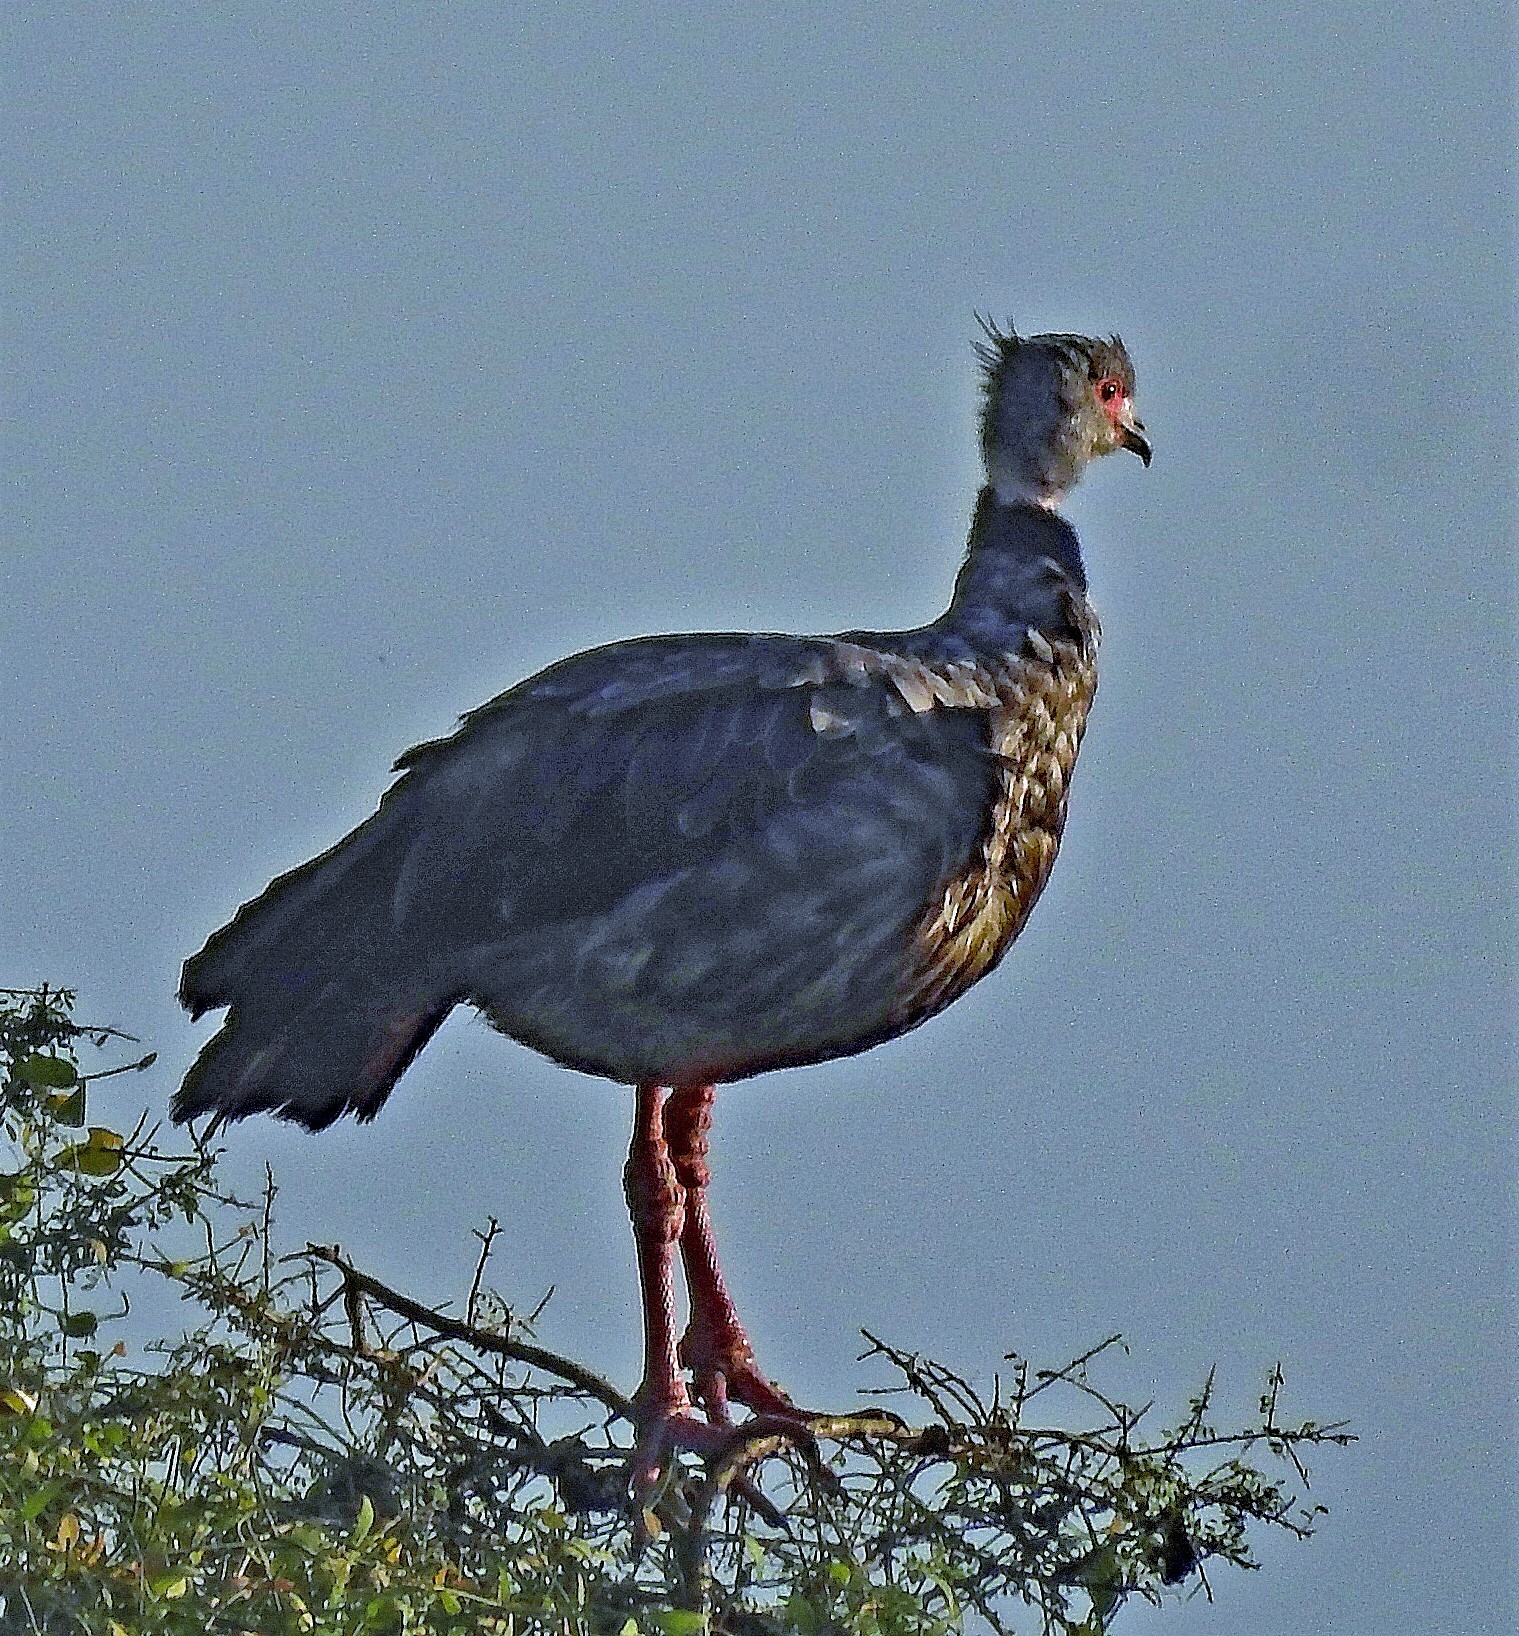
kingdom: Animalia
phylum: Chordata
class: Aves
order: Anseriformes
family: Anhimidae
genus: Chauna
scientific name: Chauna torquata
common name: Southern screamer
